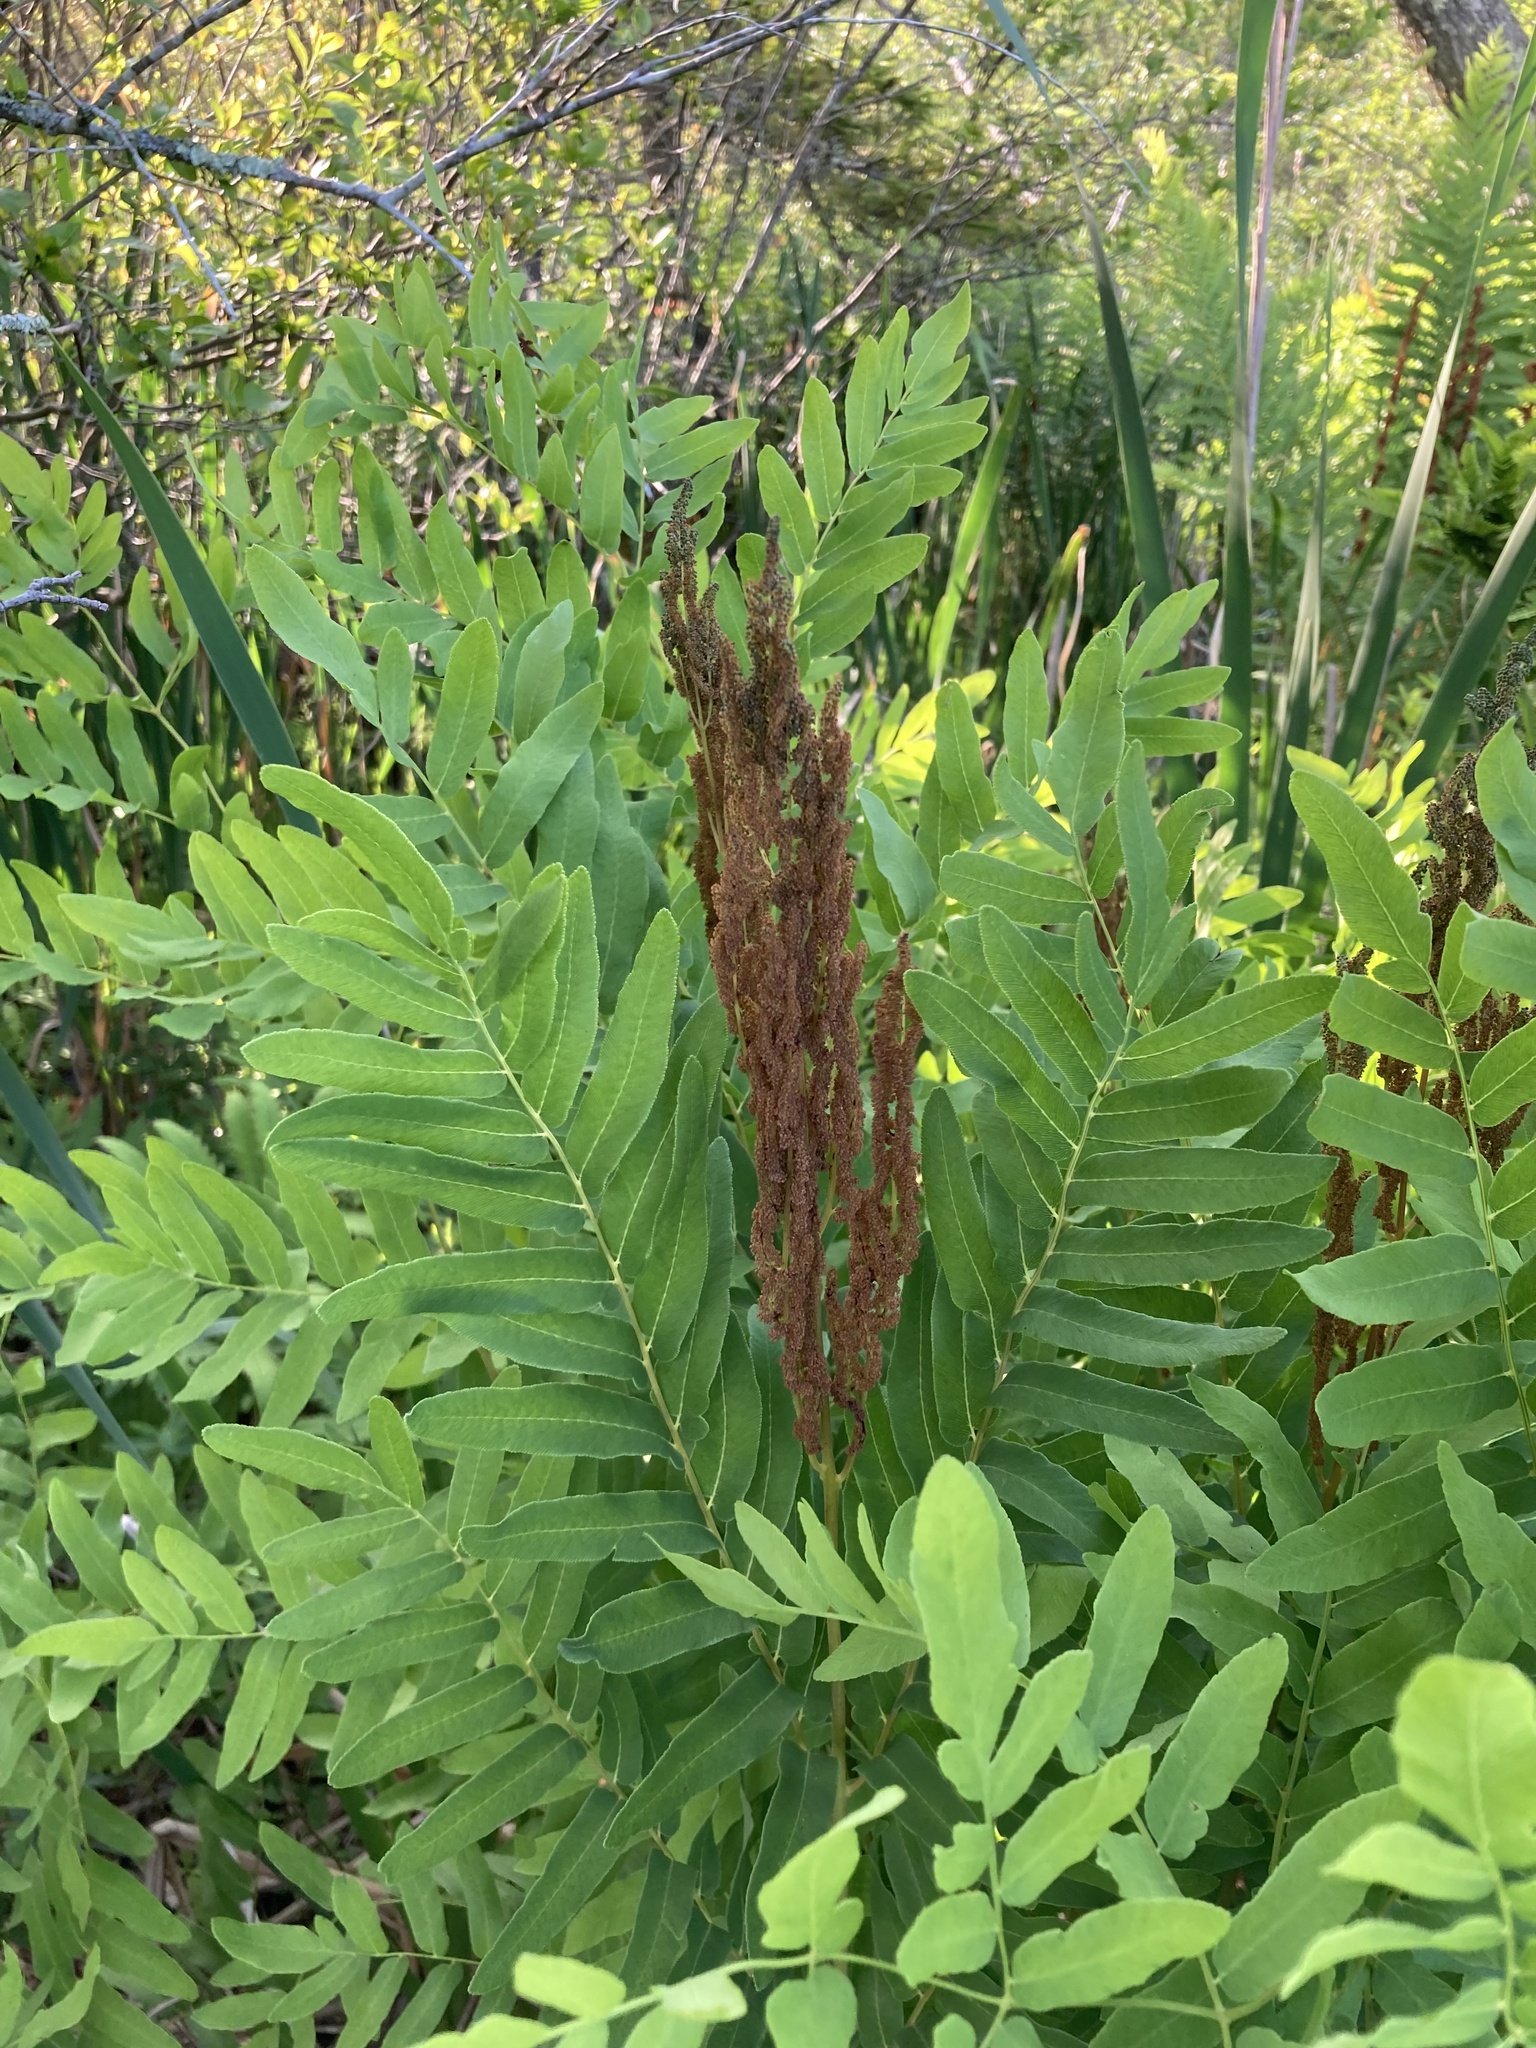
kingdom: Plantae
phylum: Tracheophyta
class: Polypodiopsida
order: Osmundales
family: Osmundaceae
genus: Osmunda
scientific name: Osmunda spectabilis
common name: American royal fern
